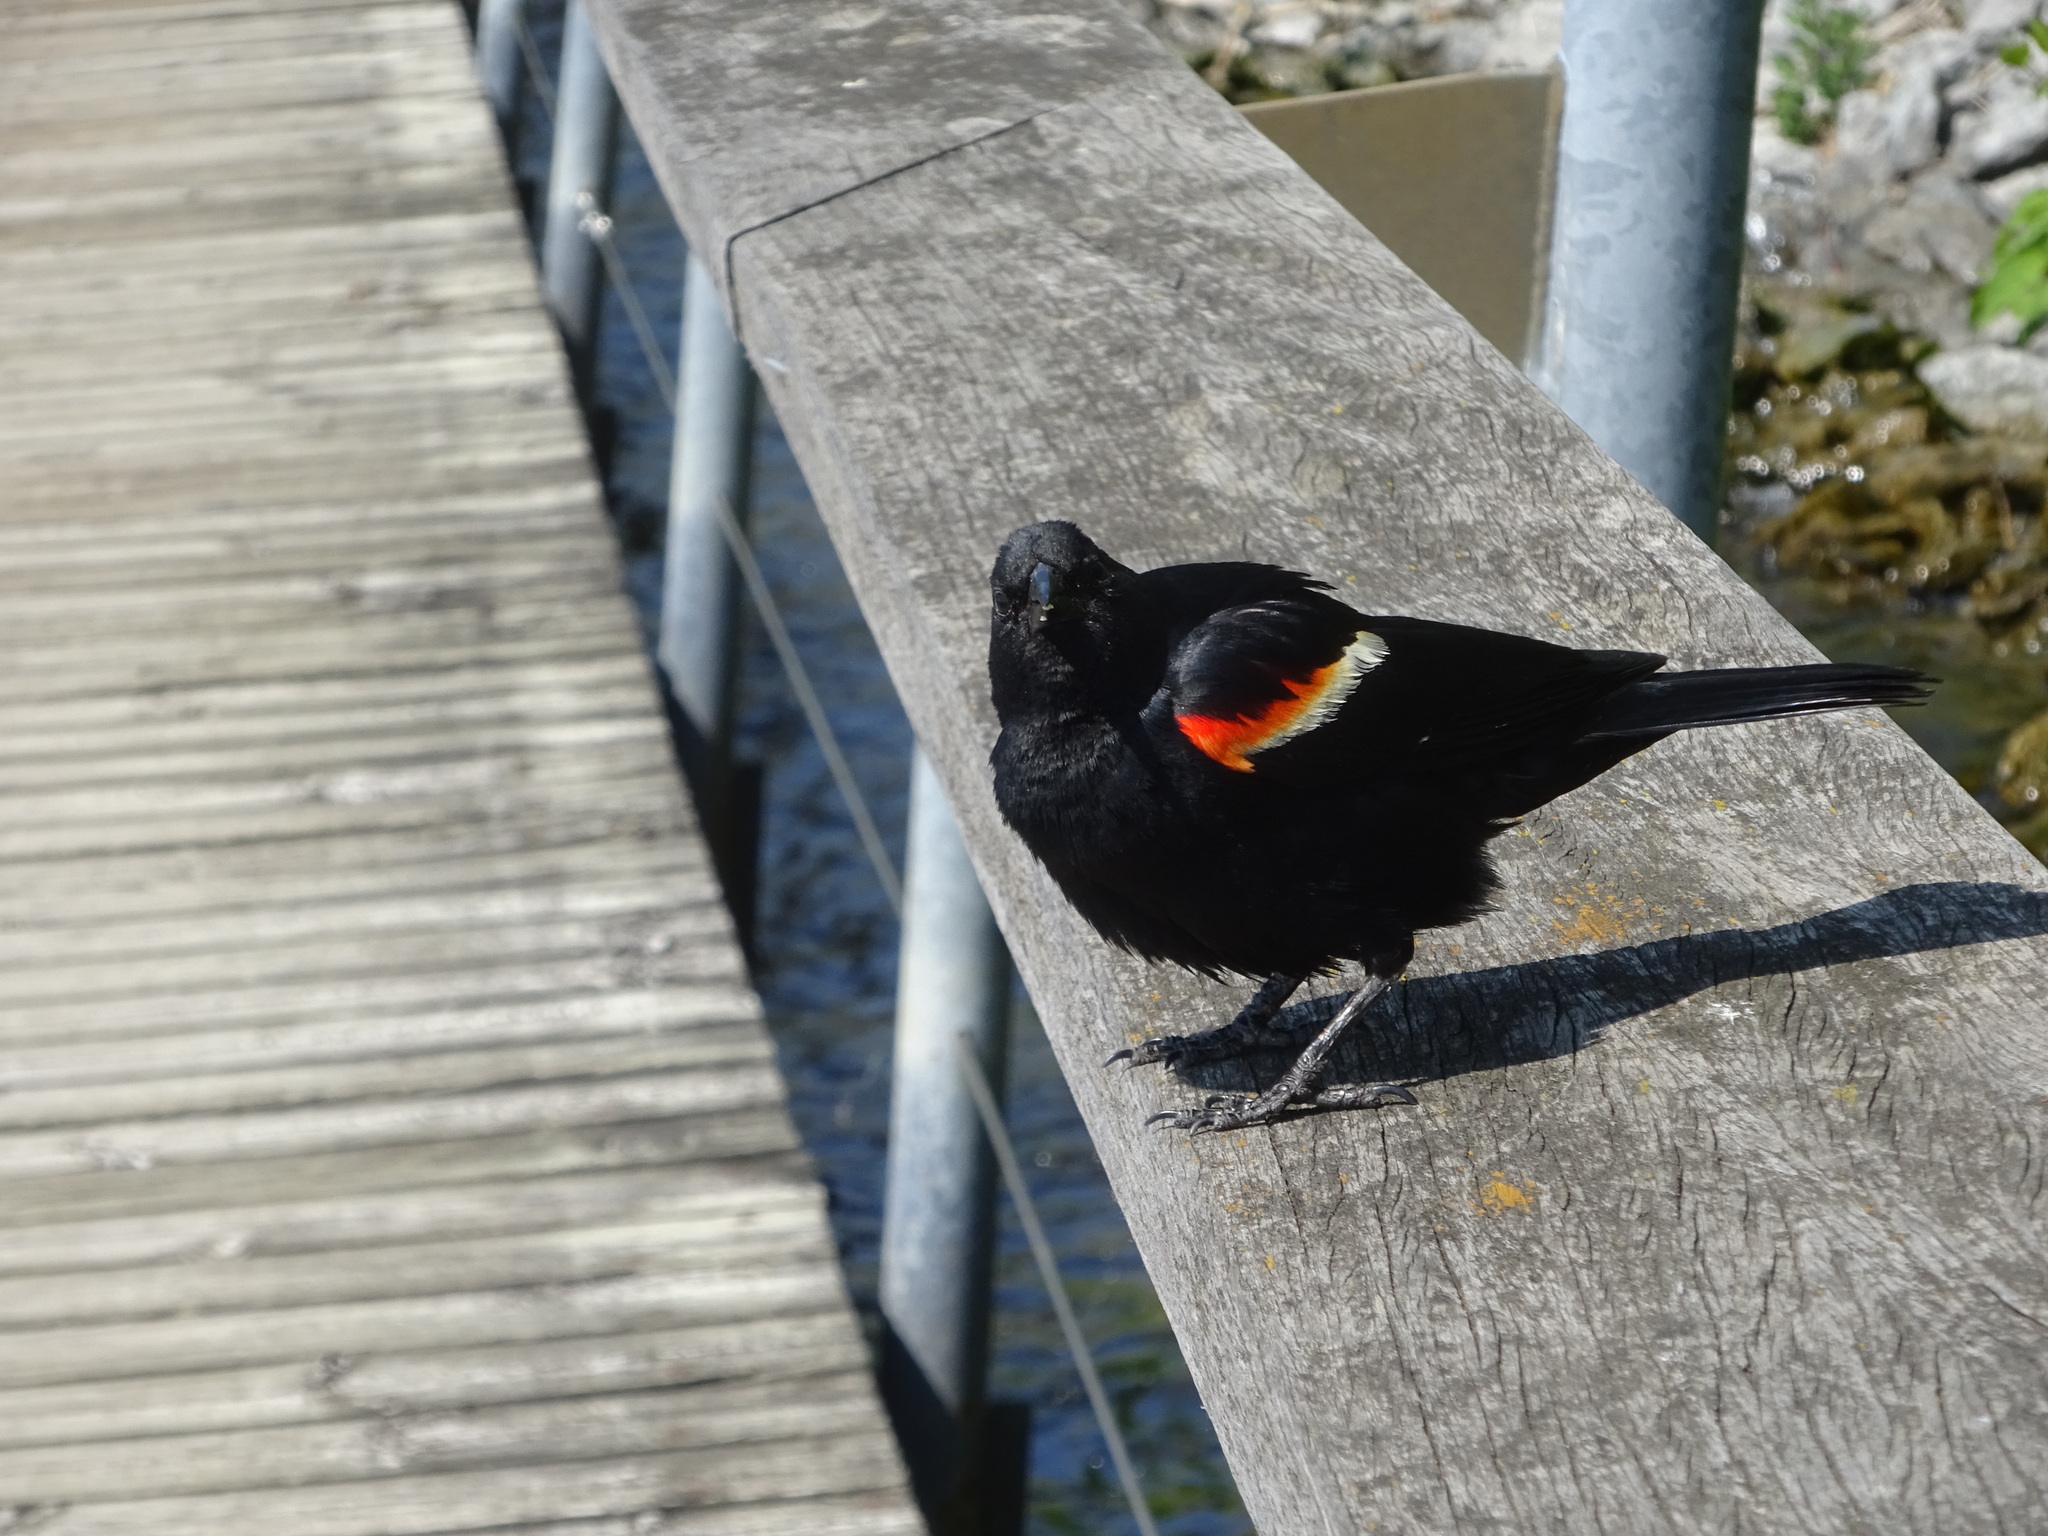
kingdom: Animalia
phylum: Chordata
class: Aves
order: Passeriformes
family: Icteridae
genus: Agelaius
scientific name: Agelaius phoeniceus
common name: Red-winged blackbird
